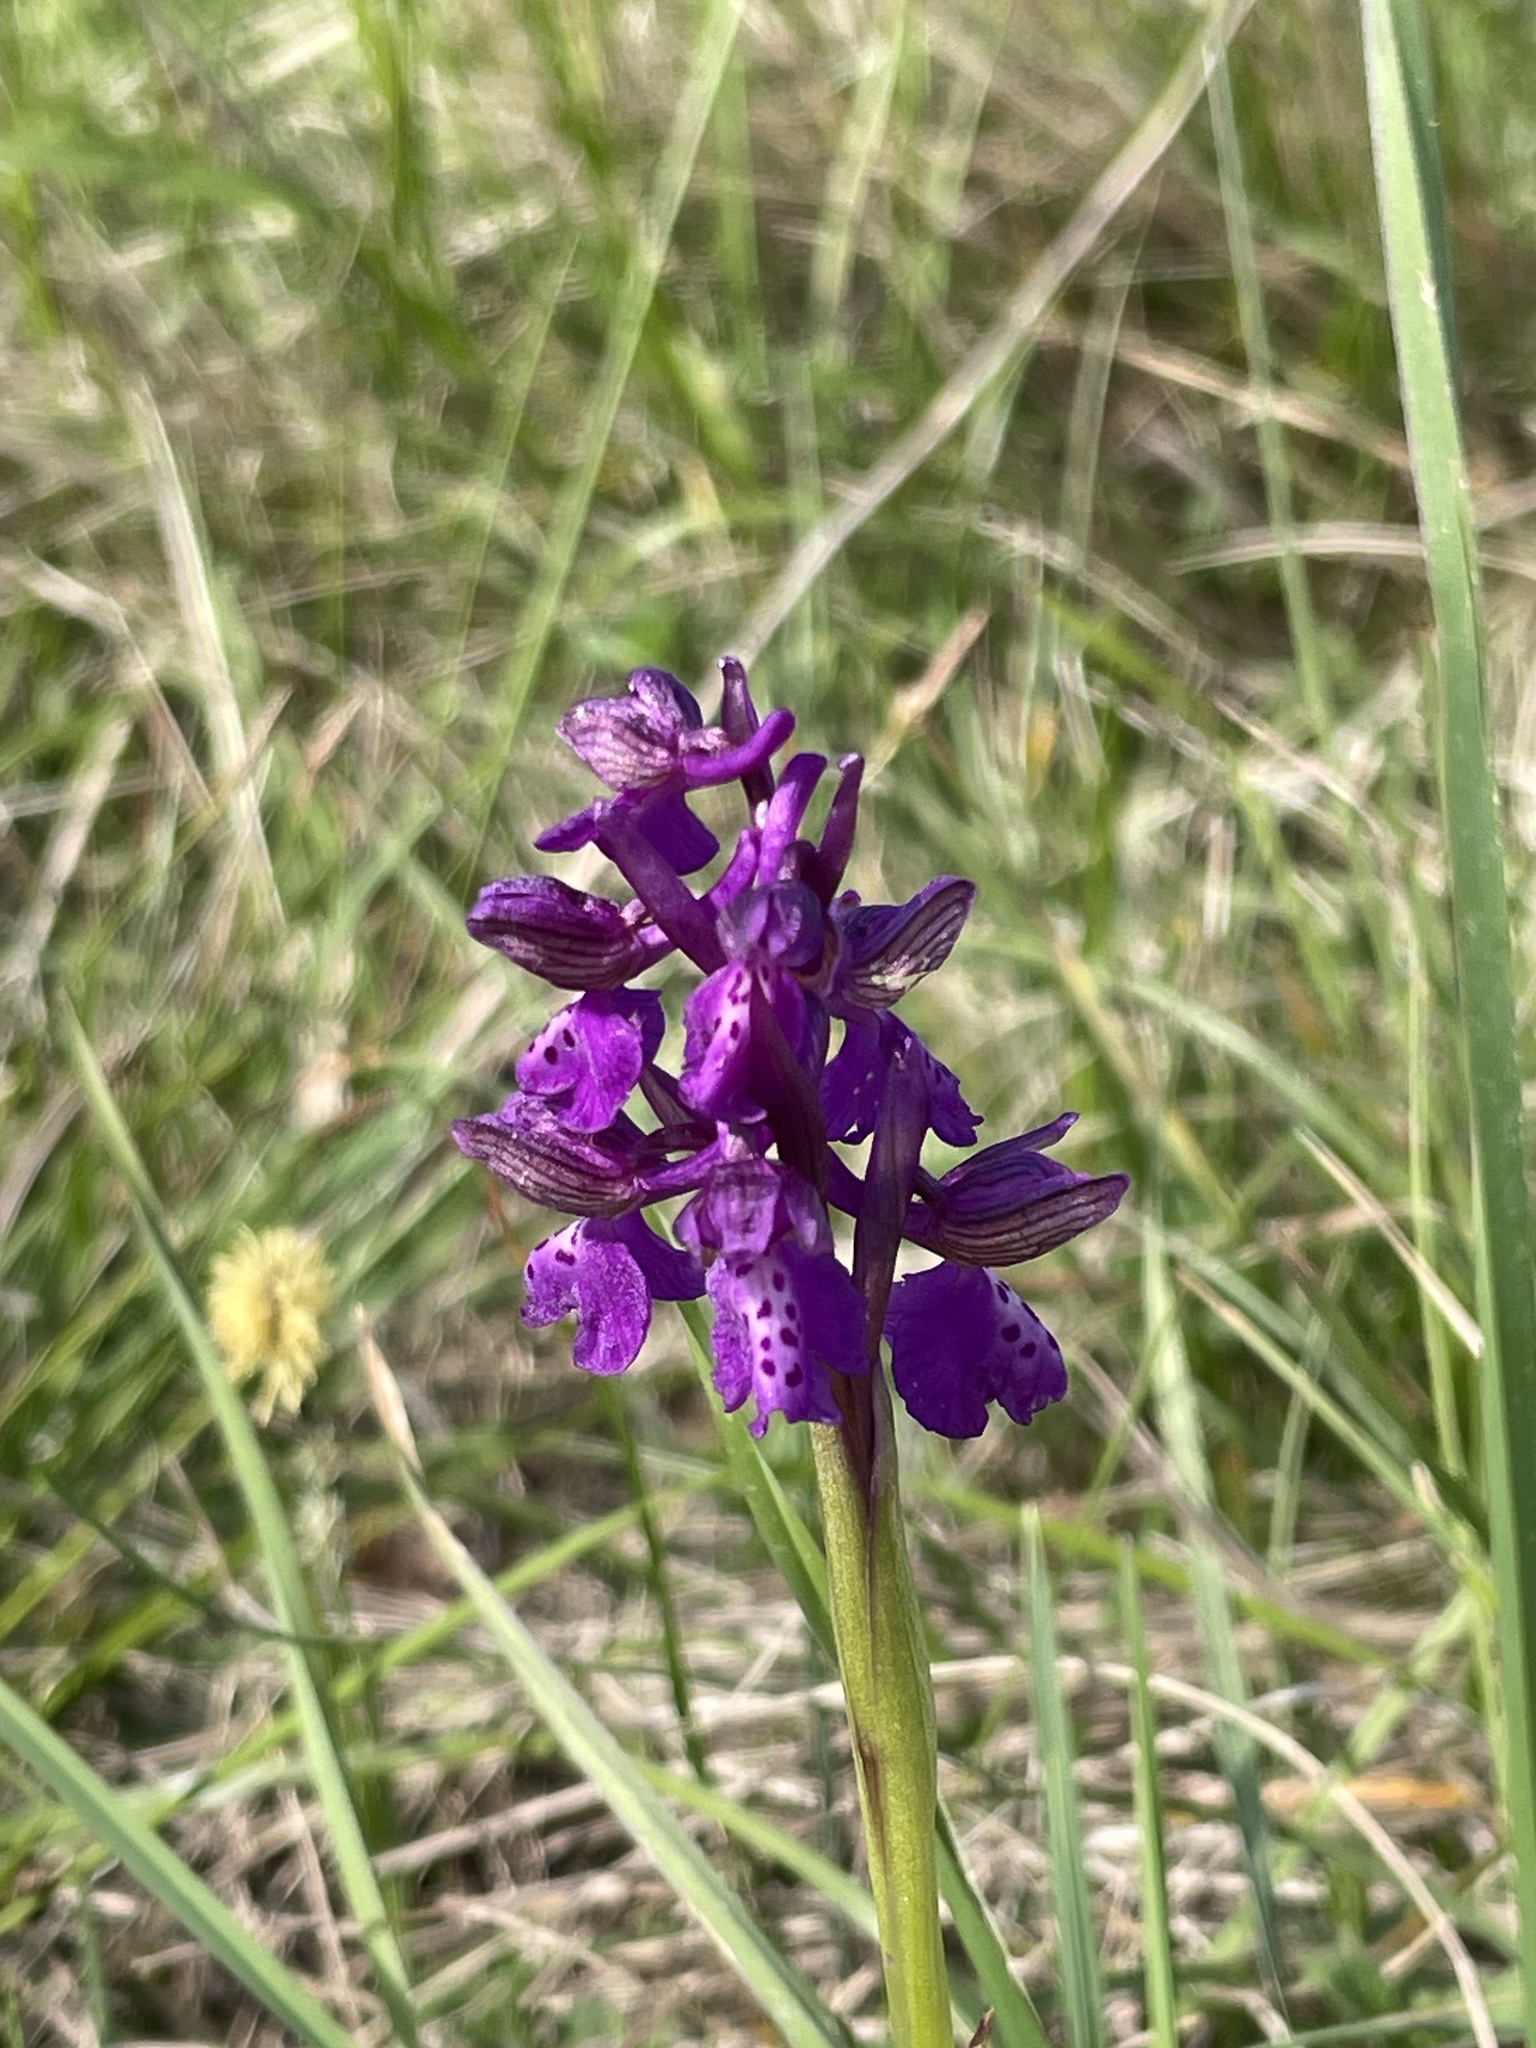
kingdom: Plantae
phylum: Tracheophyta
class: Liliopsida
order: Asparagales
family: Orchidaceae
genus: Anacamptis
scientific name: Anacamptis morio
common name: Green-winged orchid
